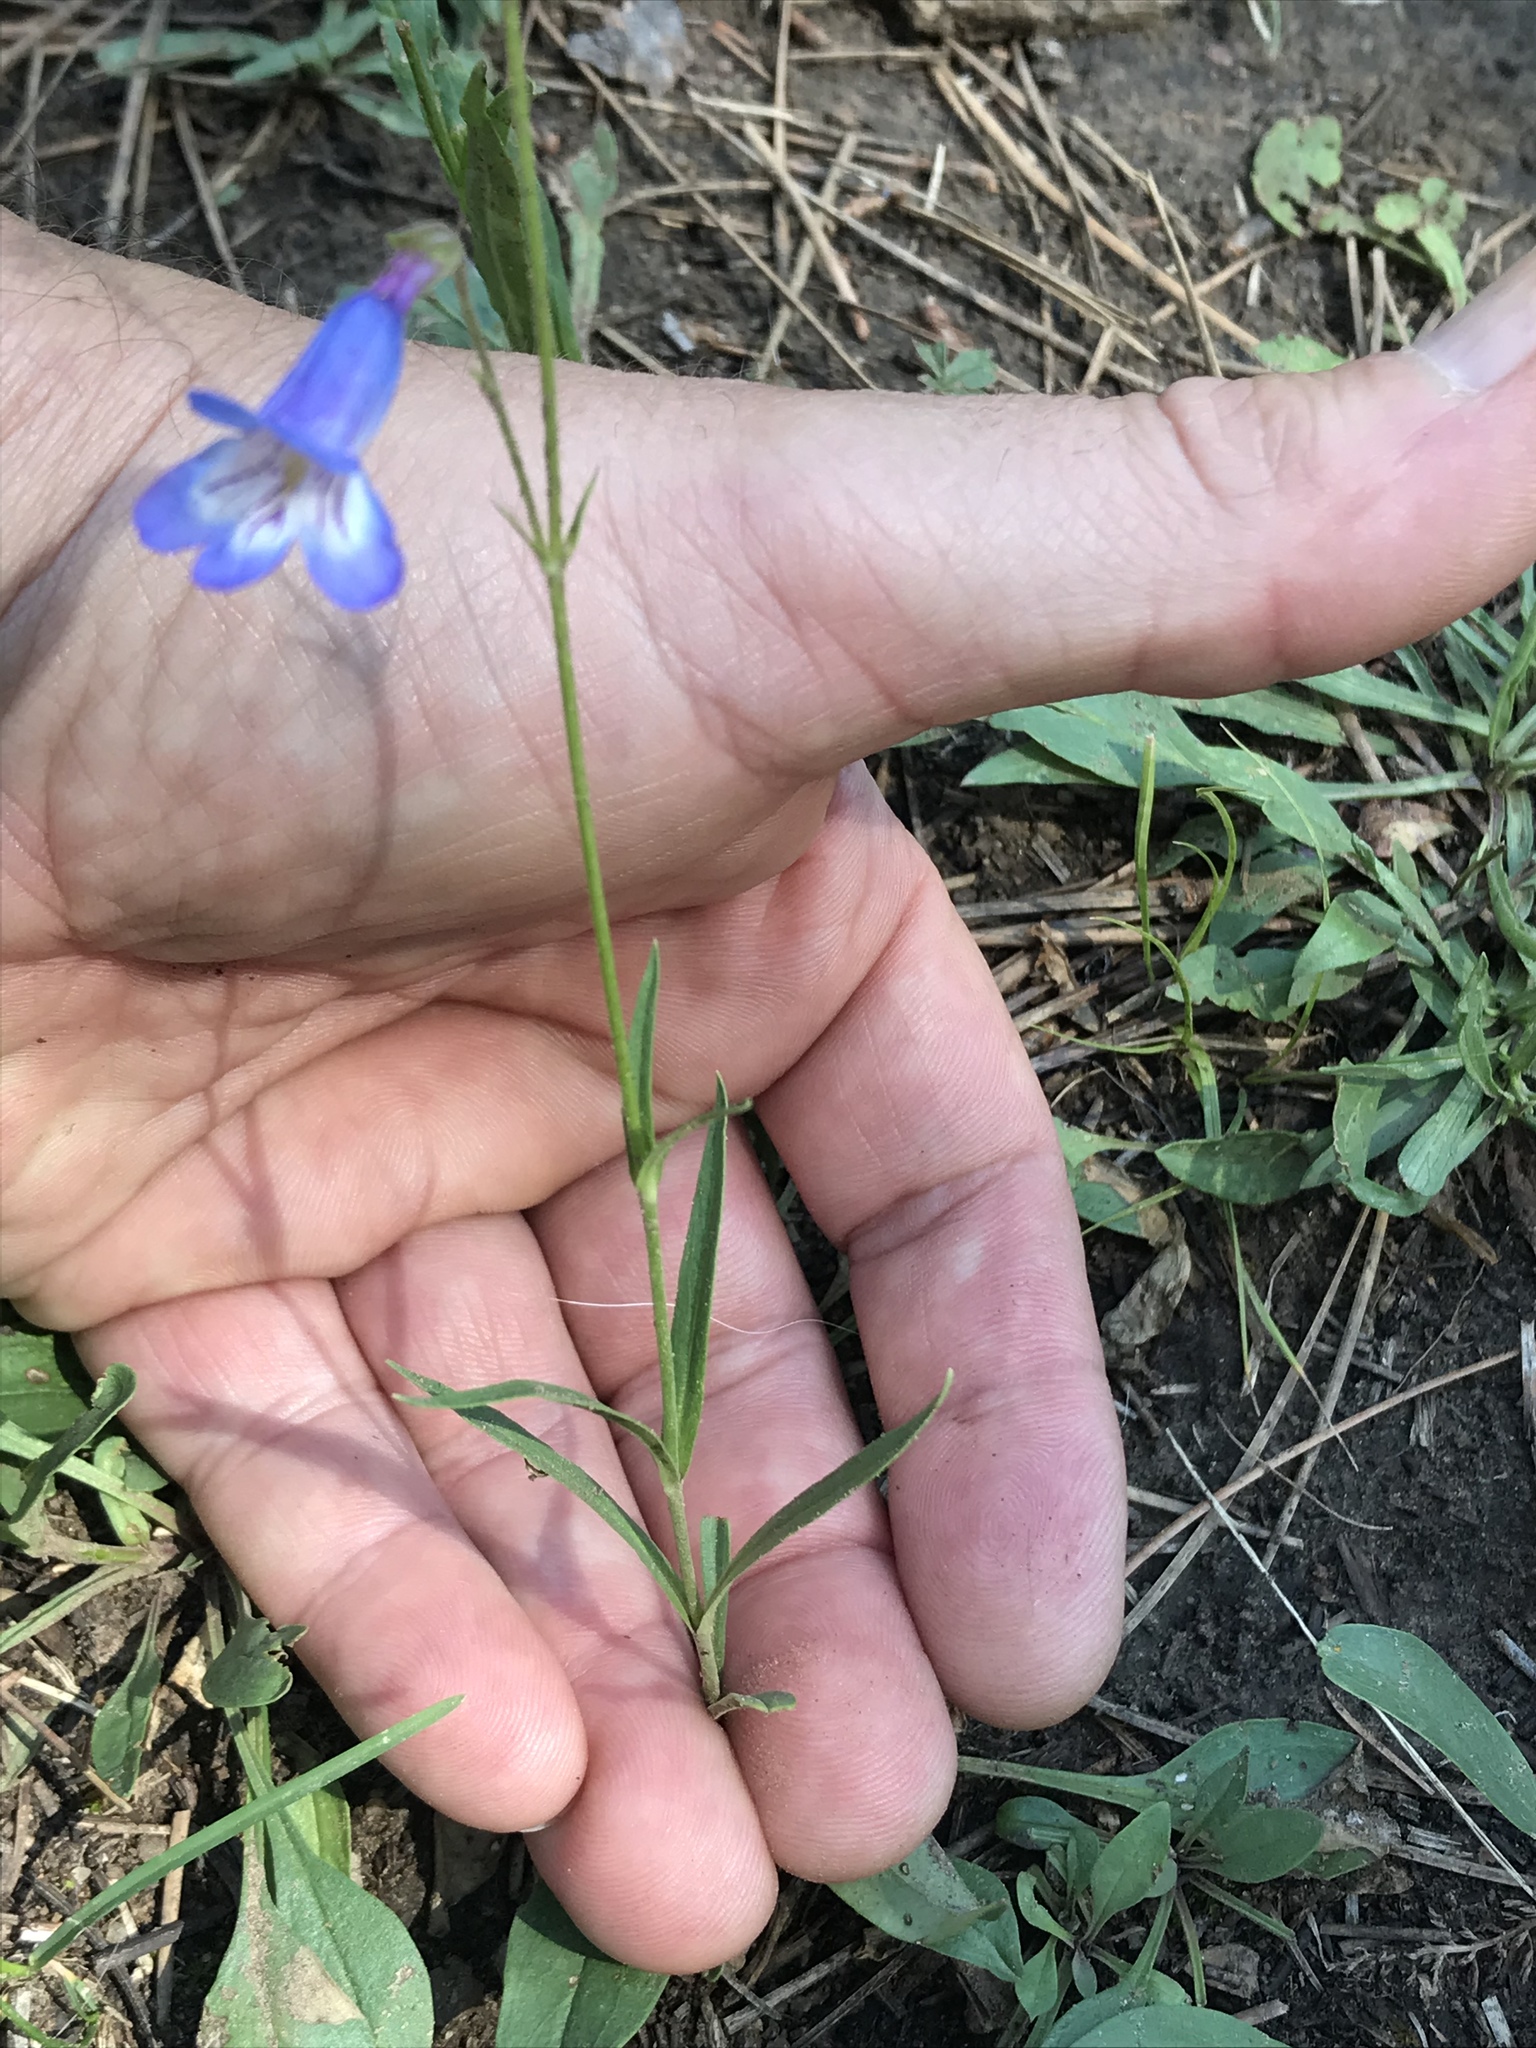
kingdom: Plantae
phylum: Tracheophyta
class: Magnoliopsida
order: Lamiales
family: Plantaginaceae
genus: Penstemon
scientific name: Penstemon griffinii
